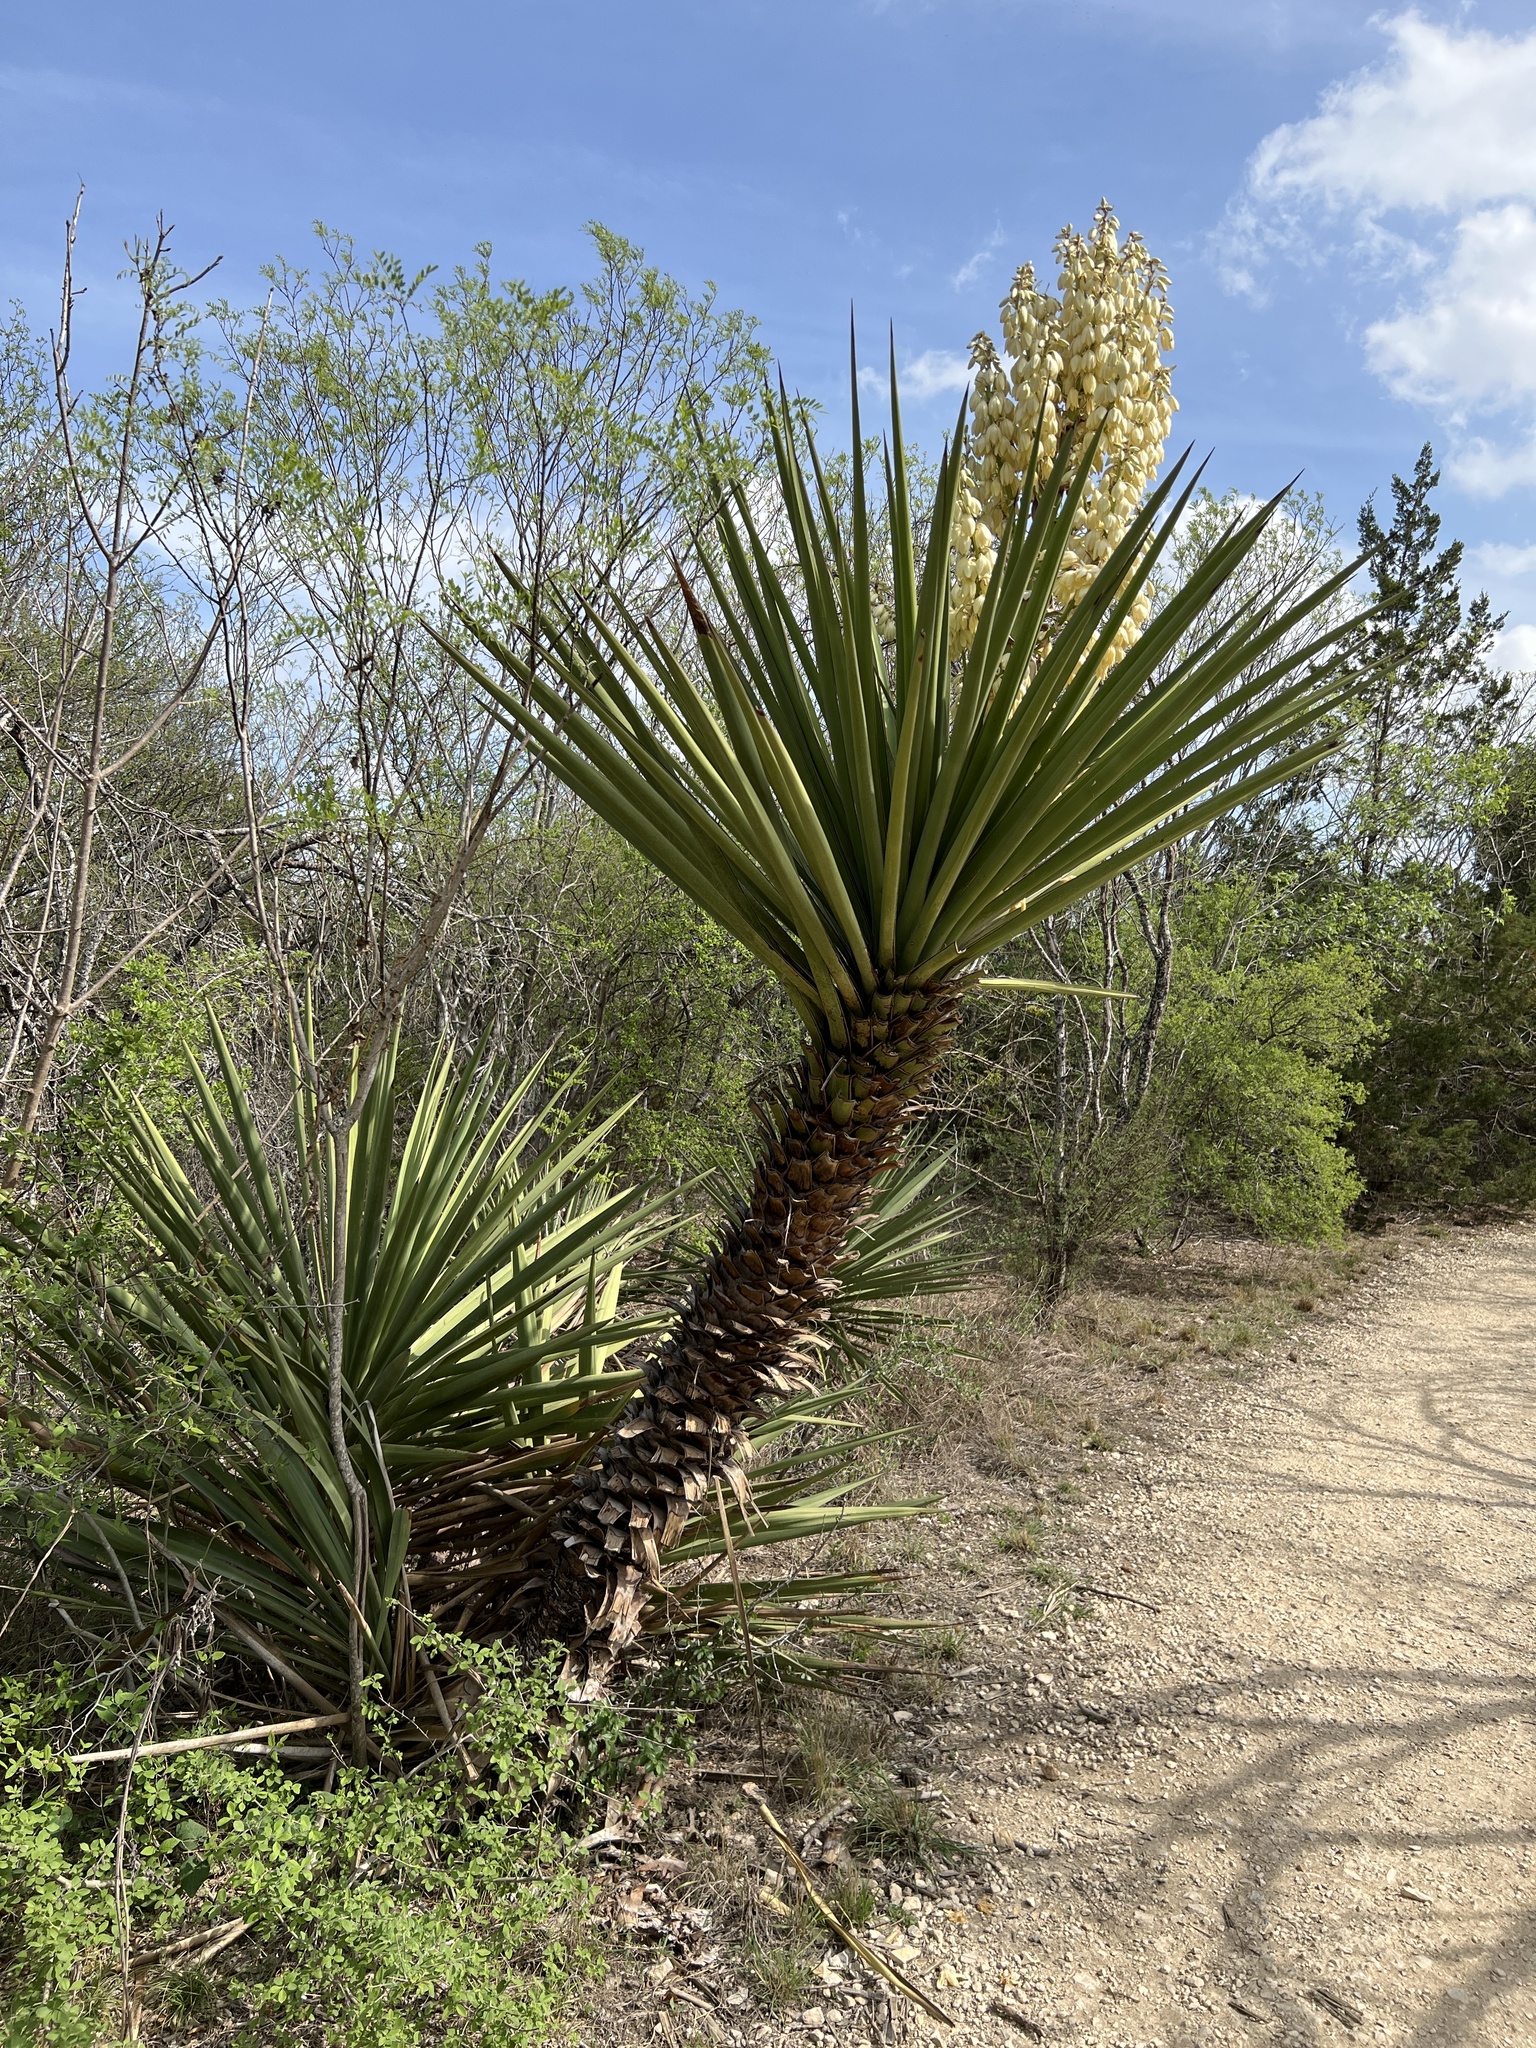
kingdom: Plantae
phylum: Tracheophyta
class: Liliopsida
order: Asparagales
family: Asparagaceae
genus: Yucca
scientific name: Yucca treculiana
